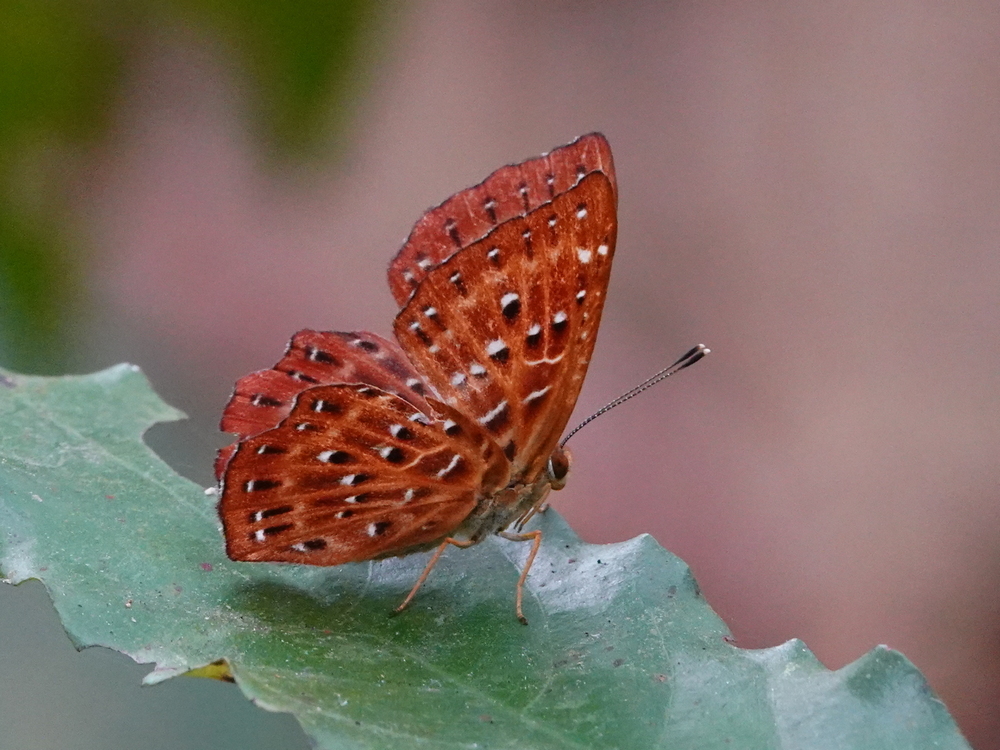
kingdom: Animalia
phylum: Arthropoda
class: Insecta
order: Lepidoptera
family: Riodinidae
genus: Zemeros
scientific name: Zemeros flegyas
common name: Punchinello
